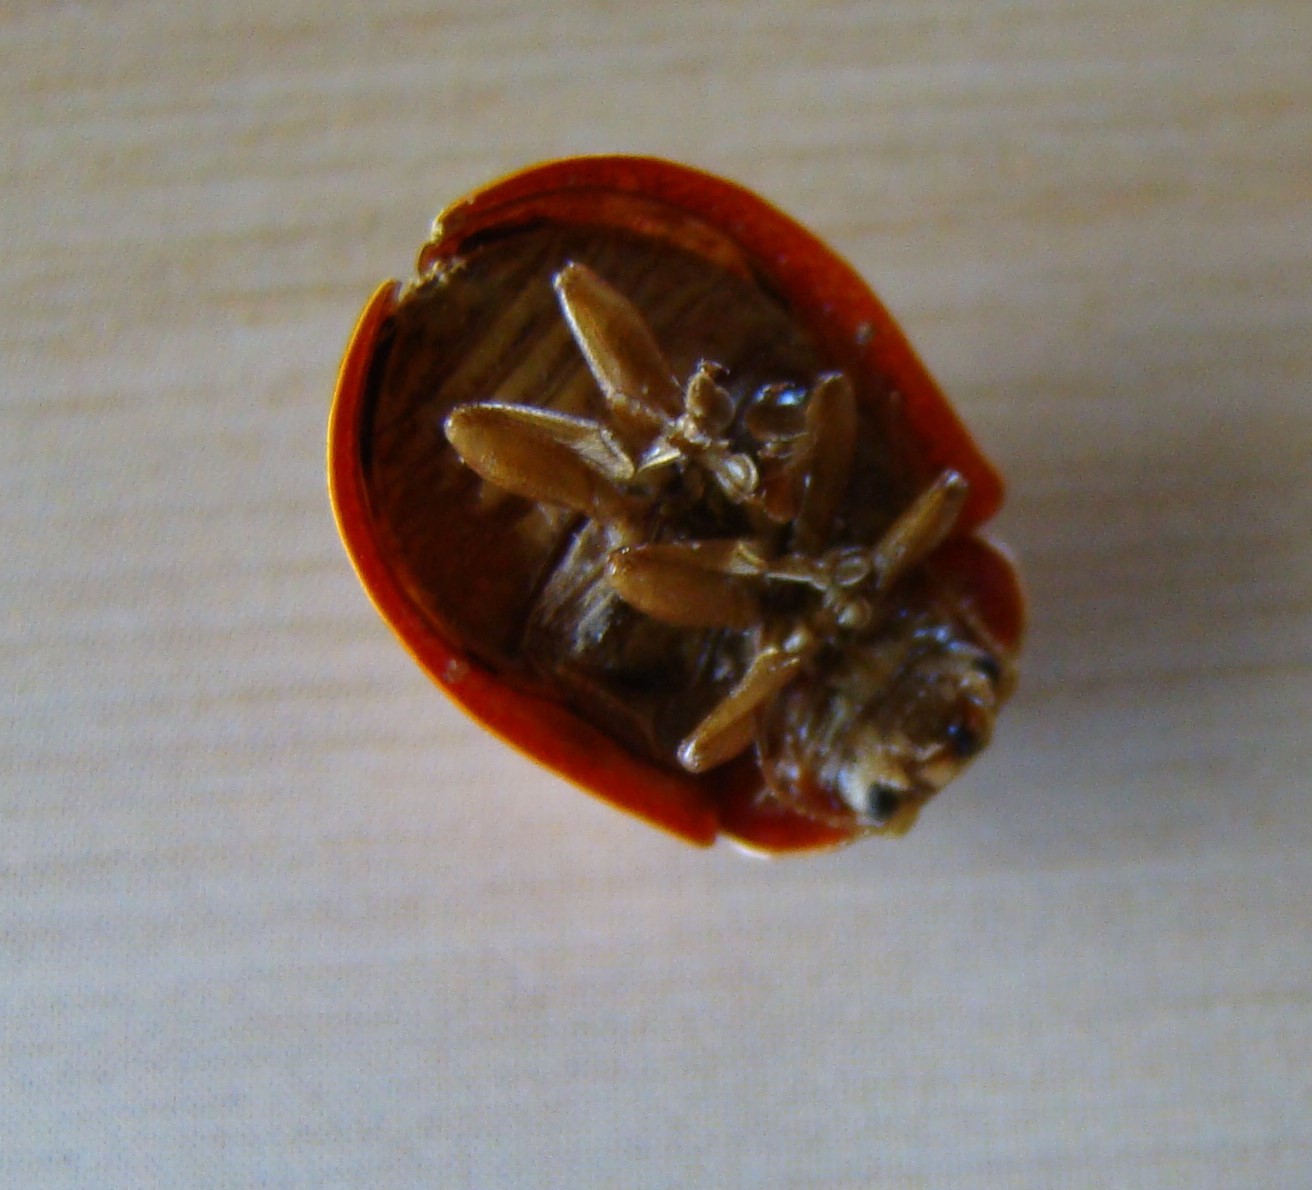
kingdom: Animalia
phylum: Arthropoda
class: Insecta
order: Coleoptera
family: Chrysomelidae
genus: Paropsis
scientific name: Paropsis charybdis
